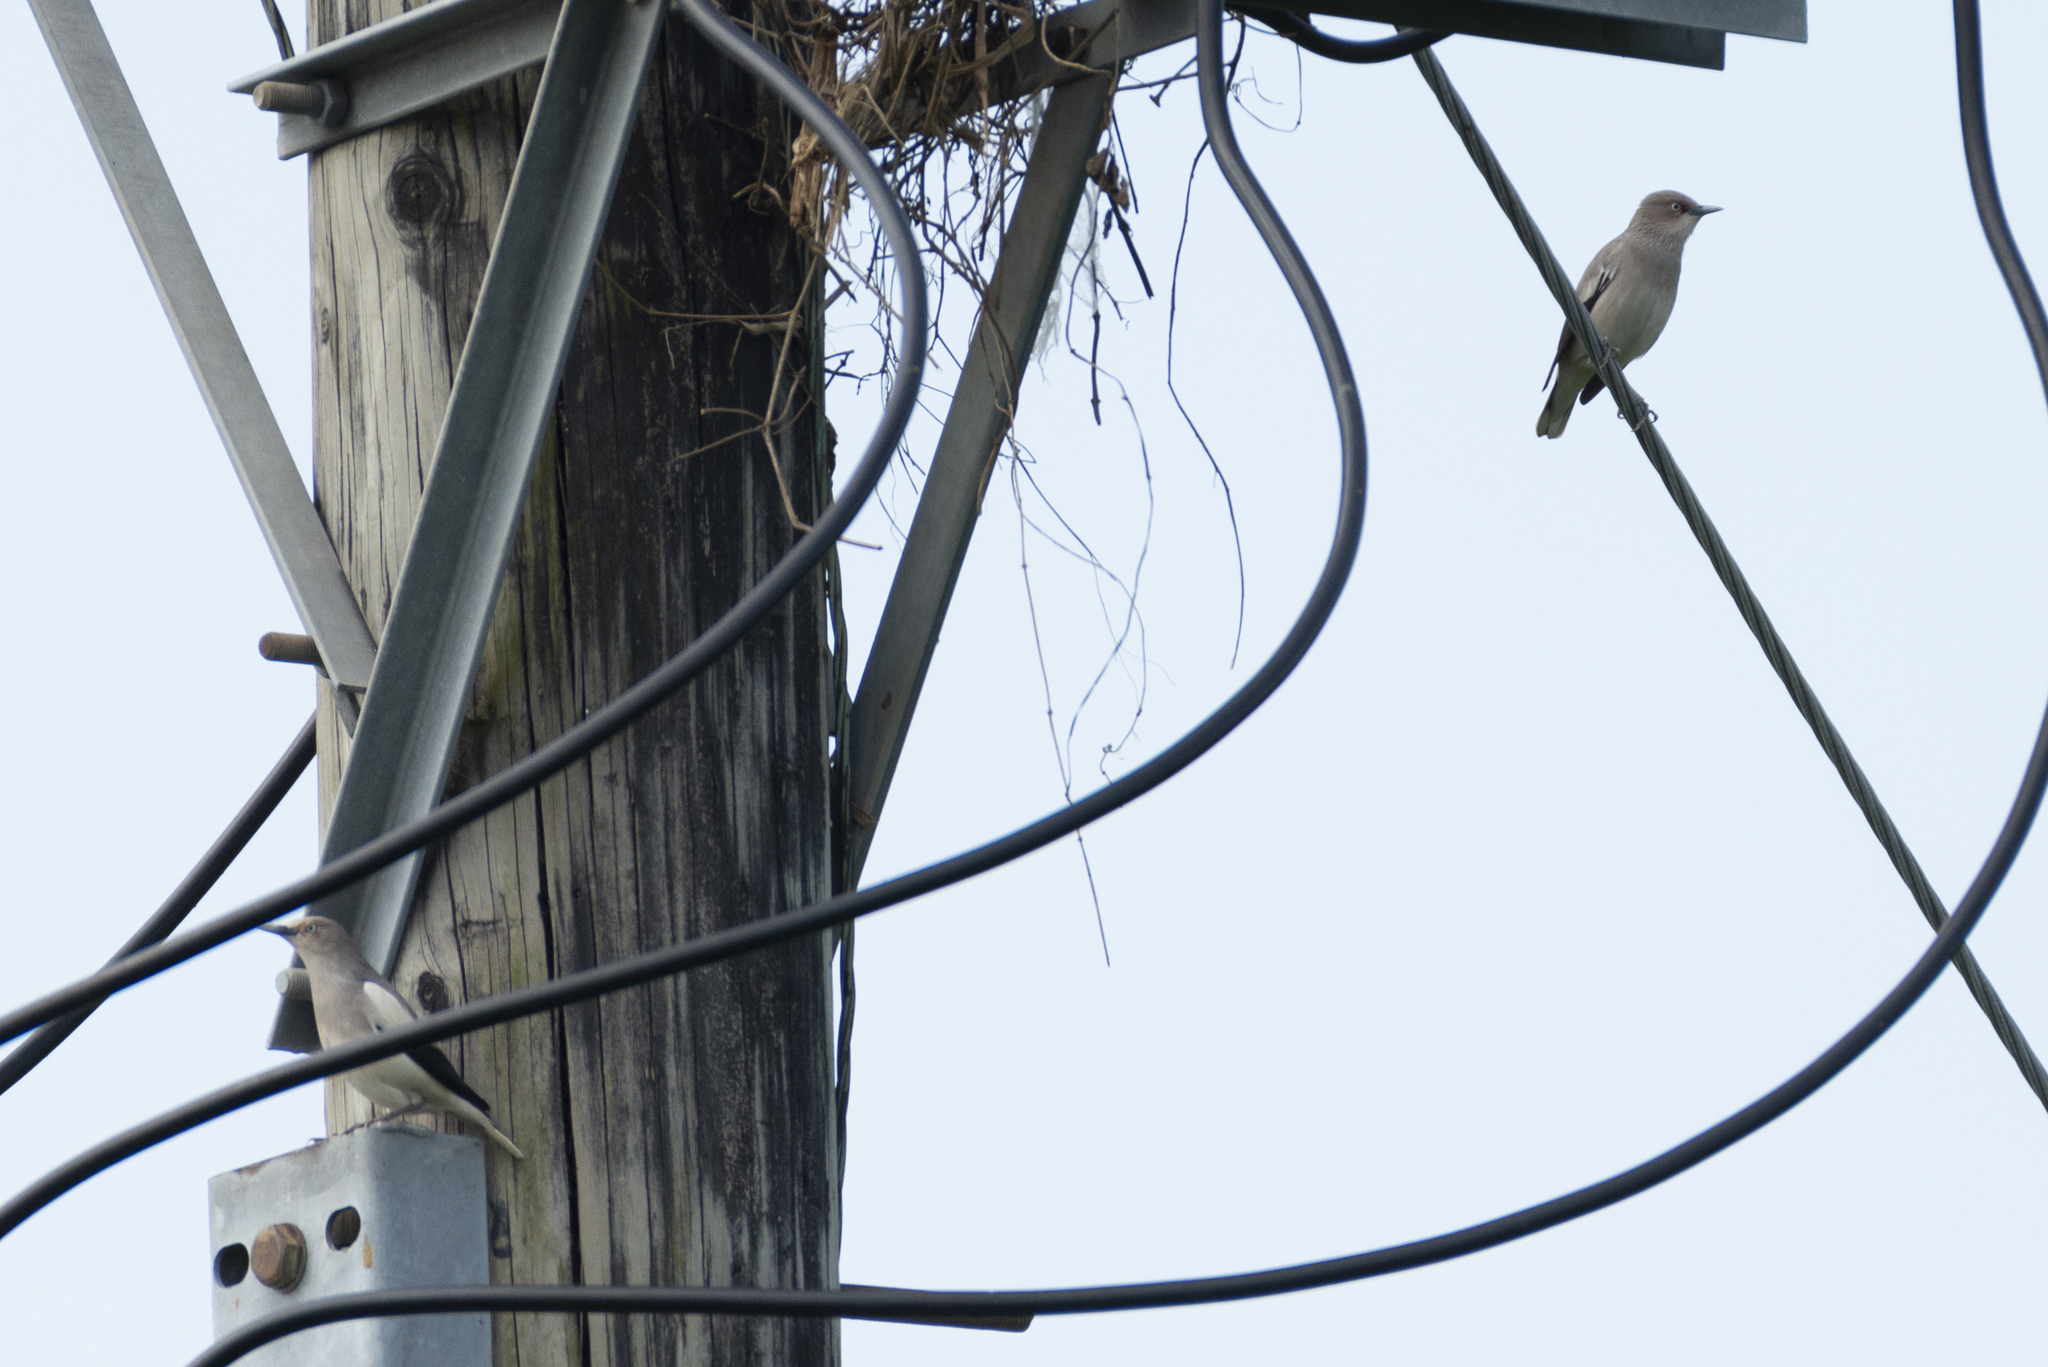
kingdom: Animalia
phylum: Chordata
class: Aves
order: Passeriformes
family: Sturnidae
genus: Sturnia
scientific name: Sturnia sinensis
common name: White-shouldered starling
